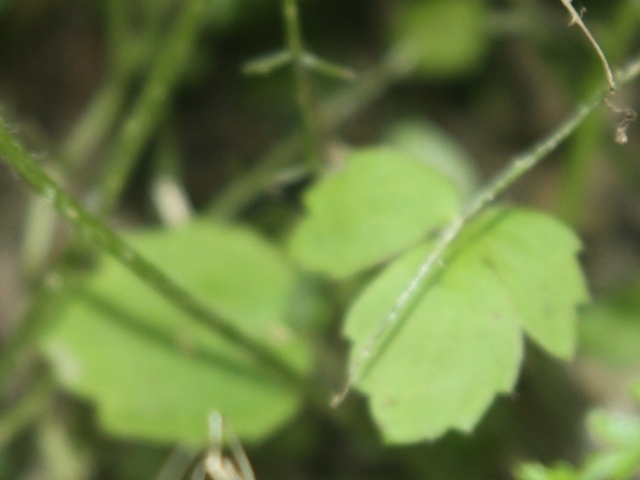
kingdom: Plantae
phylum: Tracheophyta
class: Magnoliopsida
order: Ranunculales
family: Ranunculaceae
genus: Ranunculus
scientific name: Ranunculus reflexus
